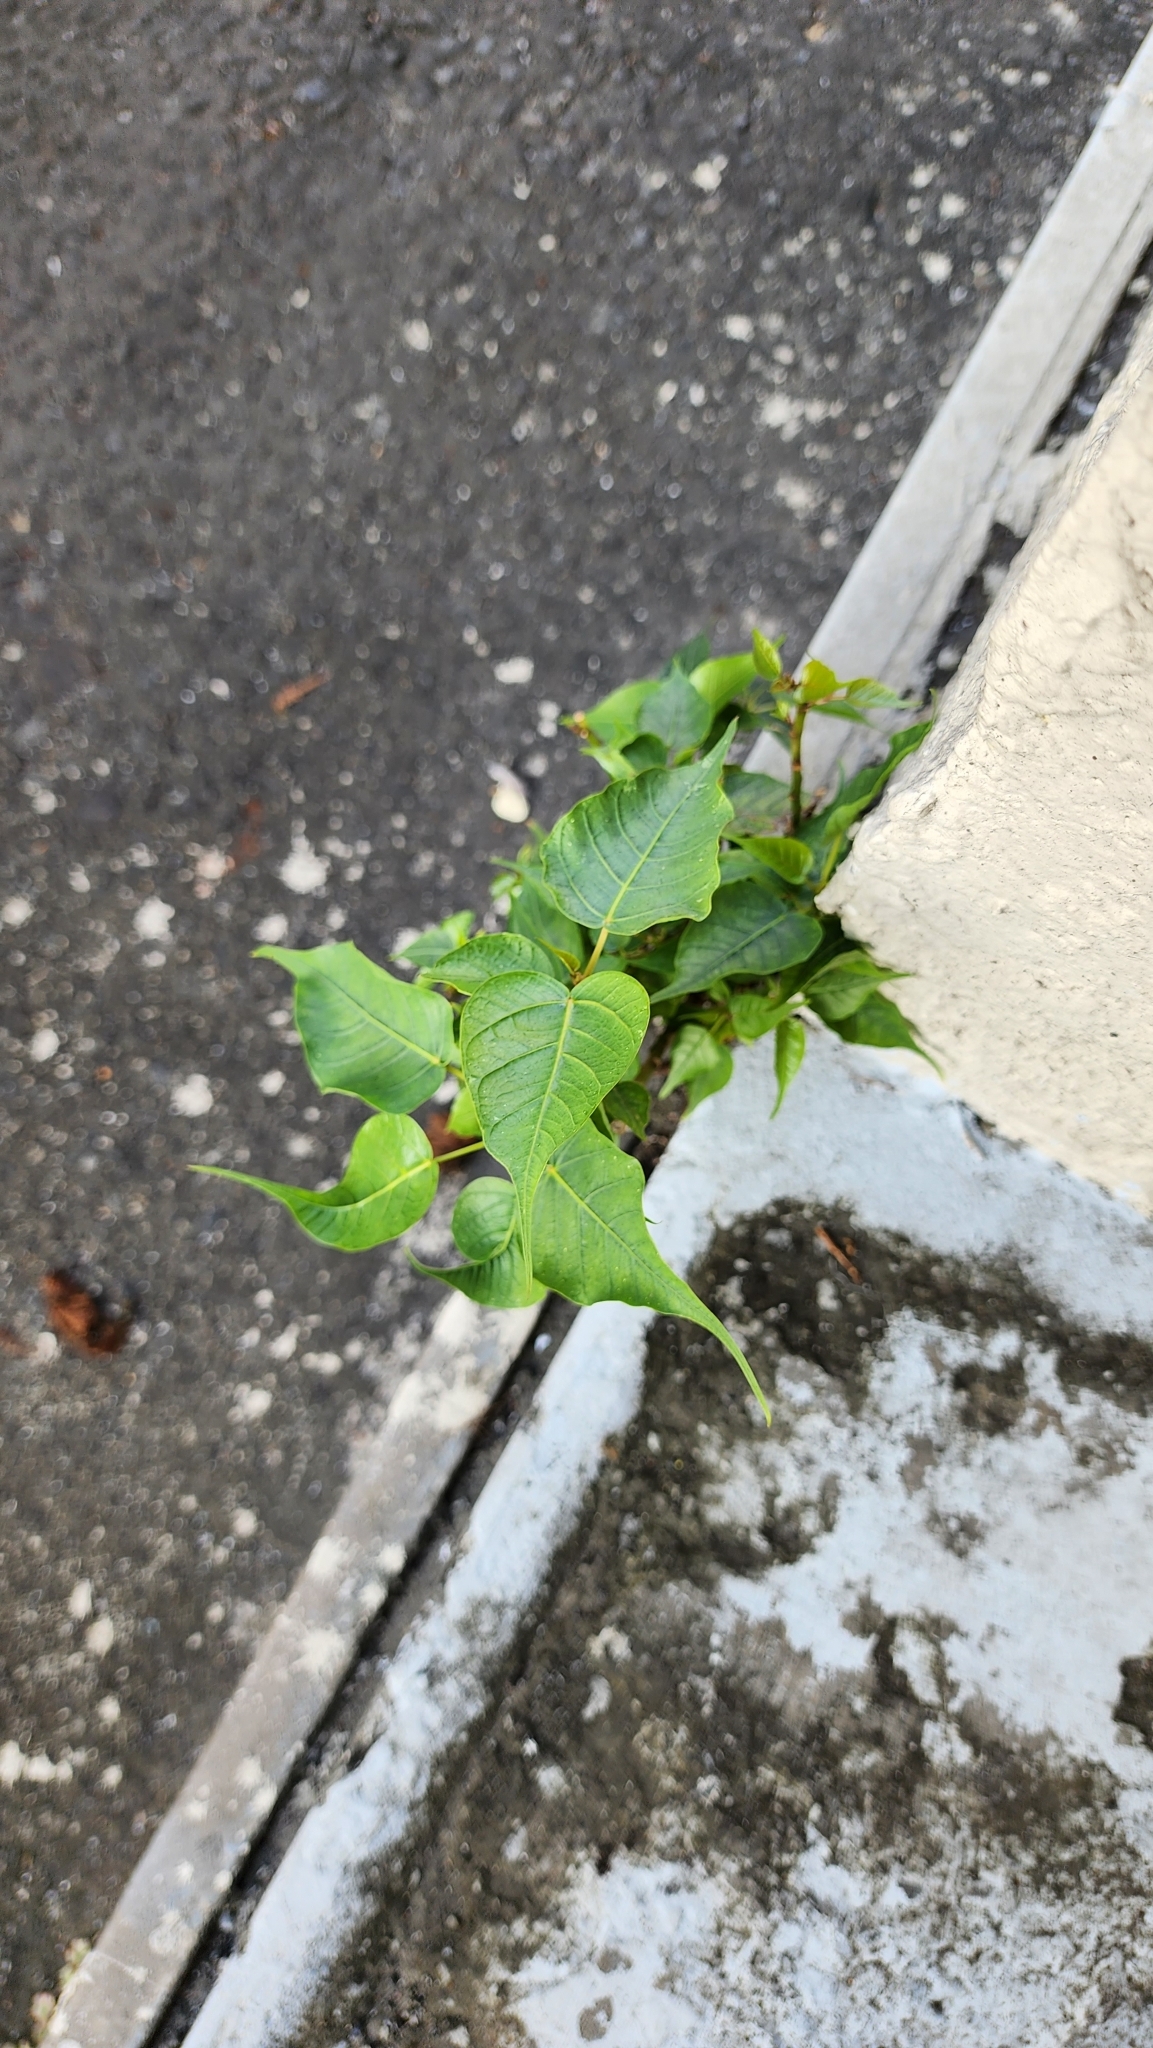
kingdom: Plantae
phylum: Tracheophyta
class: Magnoliopsida
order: Rosales
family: Moraceae
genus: Ficus
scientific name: Ficus religiosa
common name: Bodhi tree
